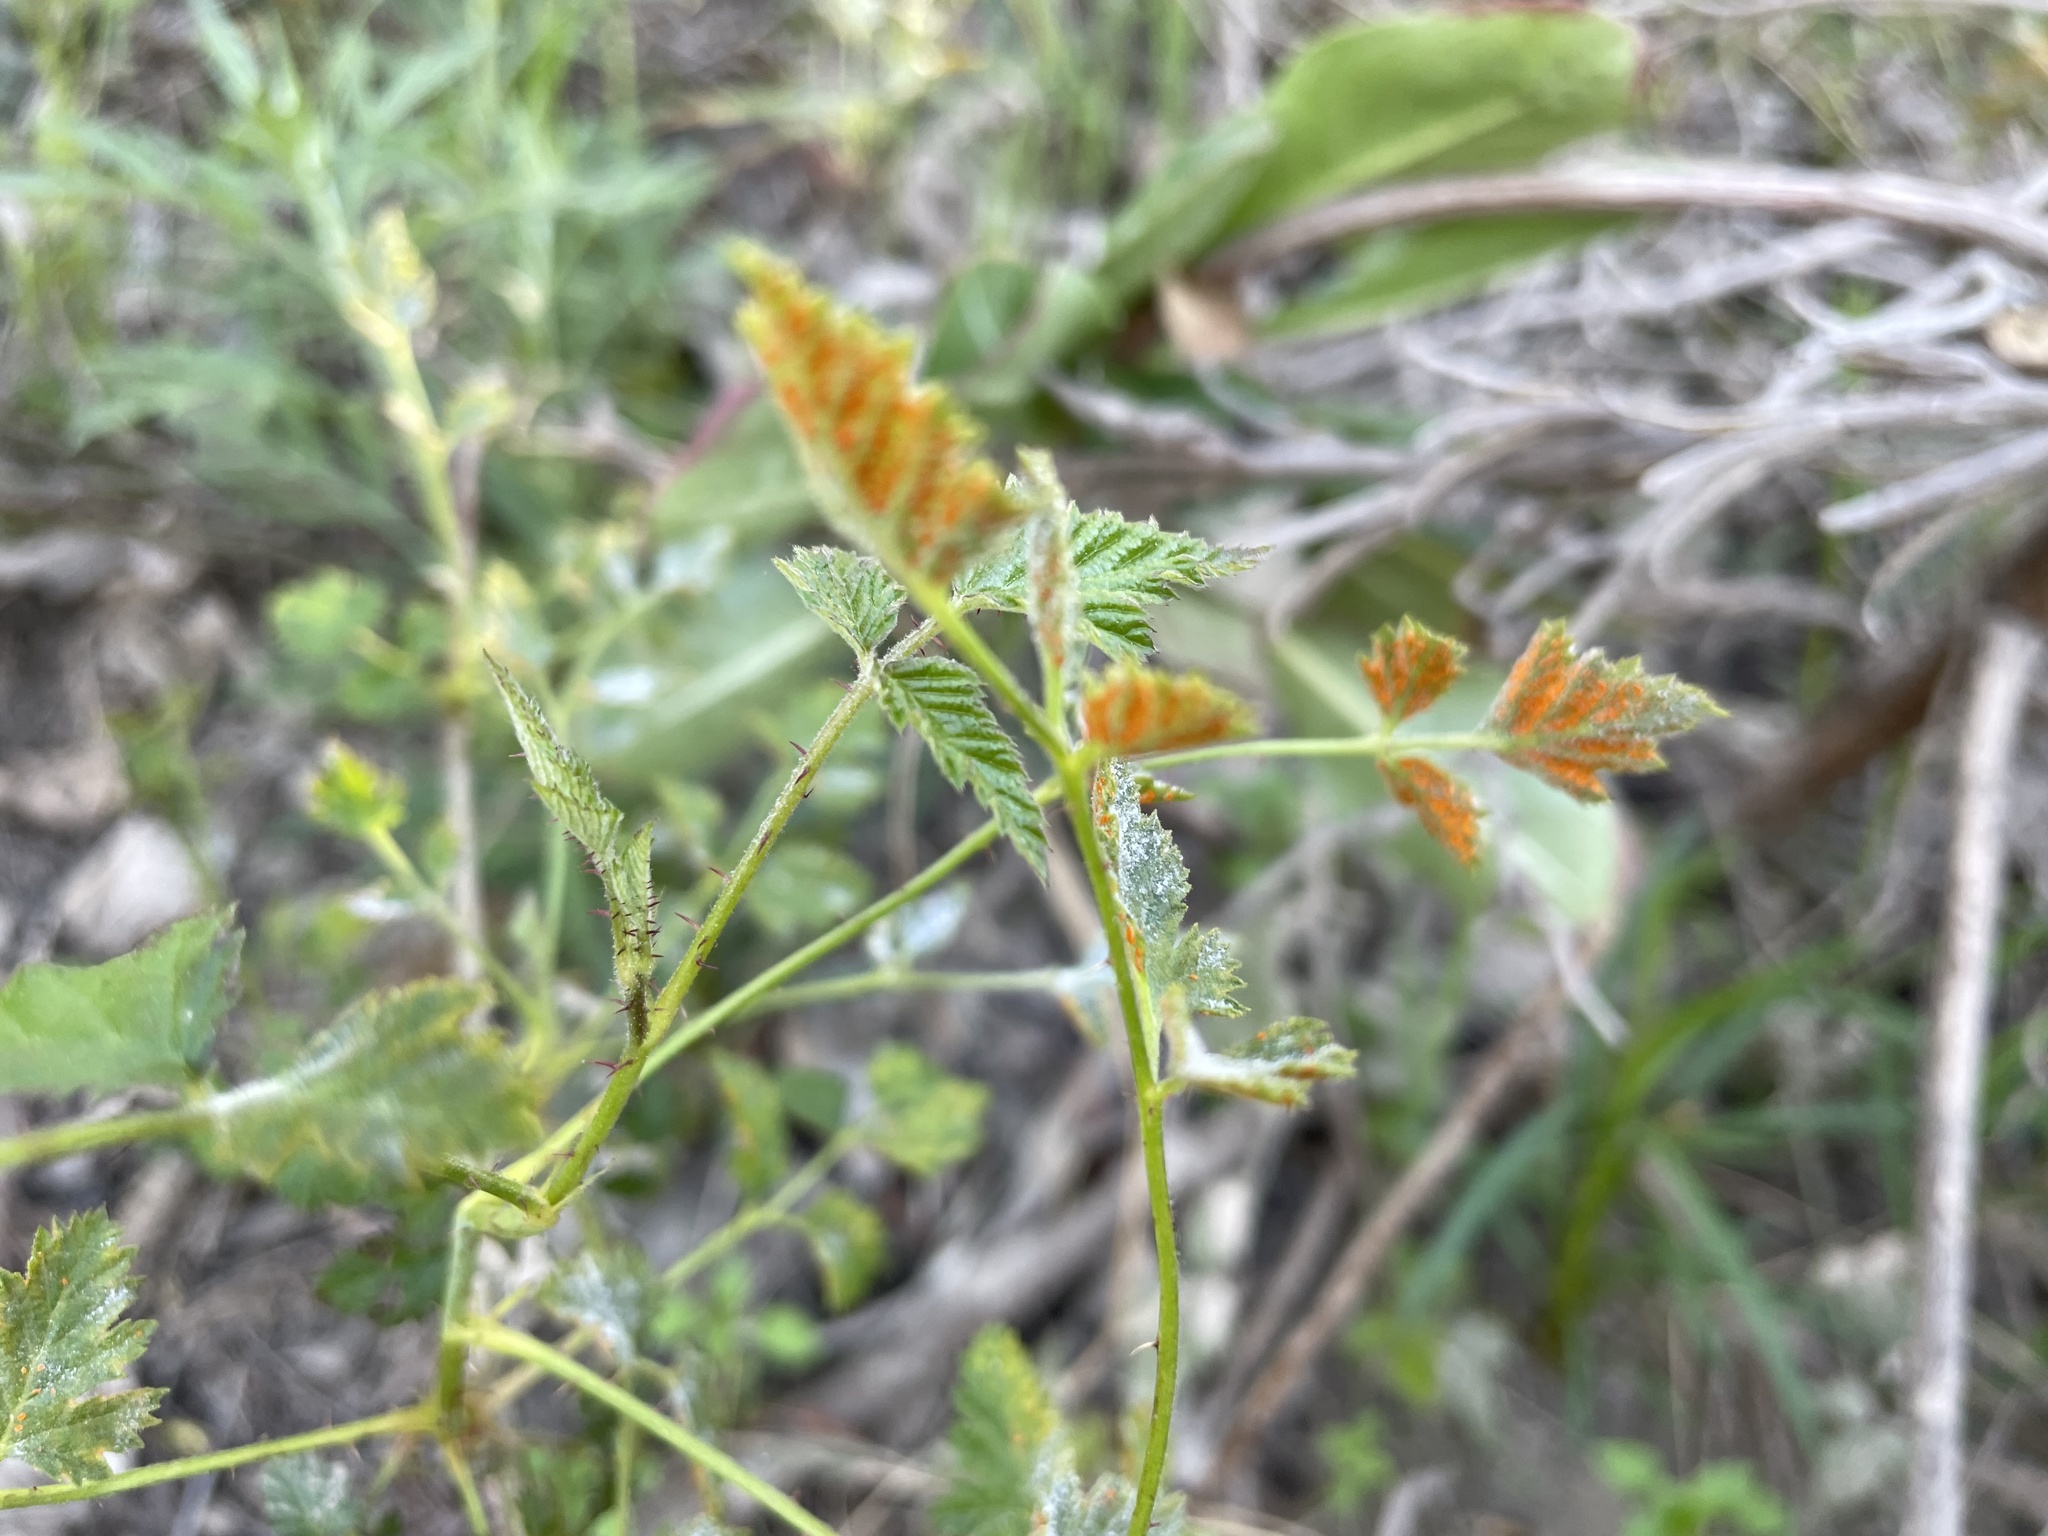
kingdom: Fungi
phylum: Basidiomycota
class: Pucciniomycetes
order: Pucciniales
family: Phragmidiaceae
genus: Arthuriomyces
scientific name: Arthuriomyces peckianus
